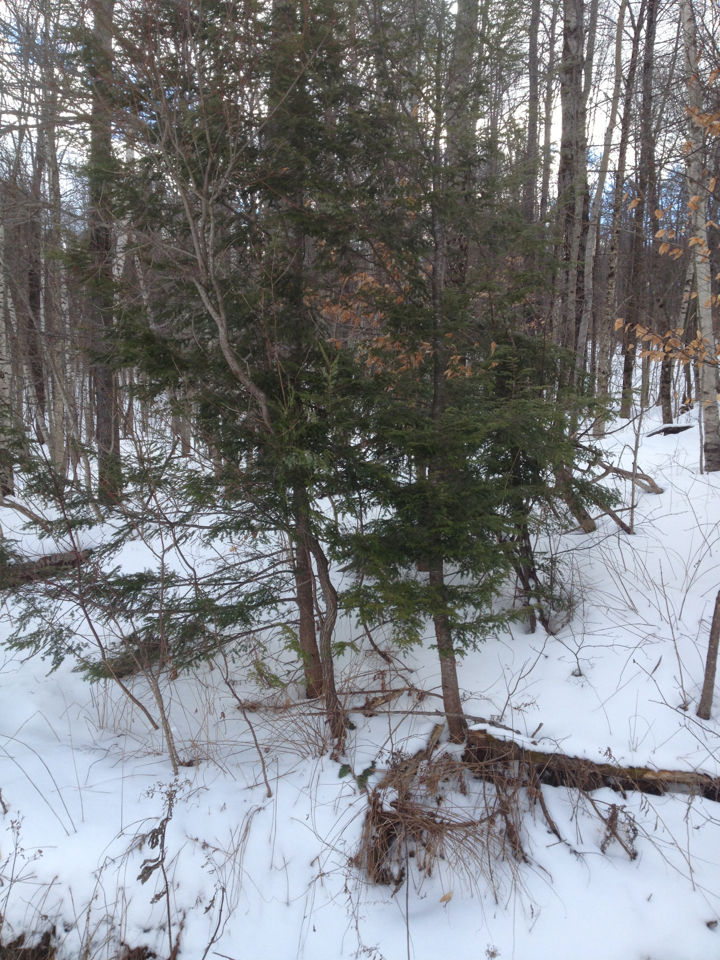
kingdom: Plantae
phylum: Tracheophyta
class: Pinopsida
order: Pinales
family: Pinaceae
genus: Tsuga
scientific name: Tsuga canadensis
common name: Eastern hemlock
